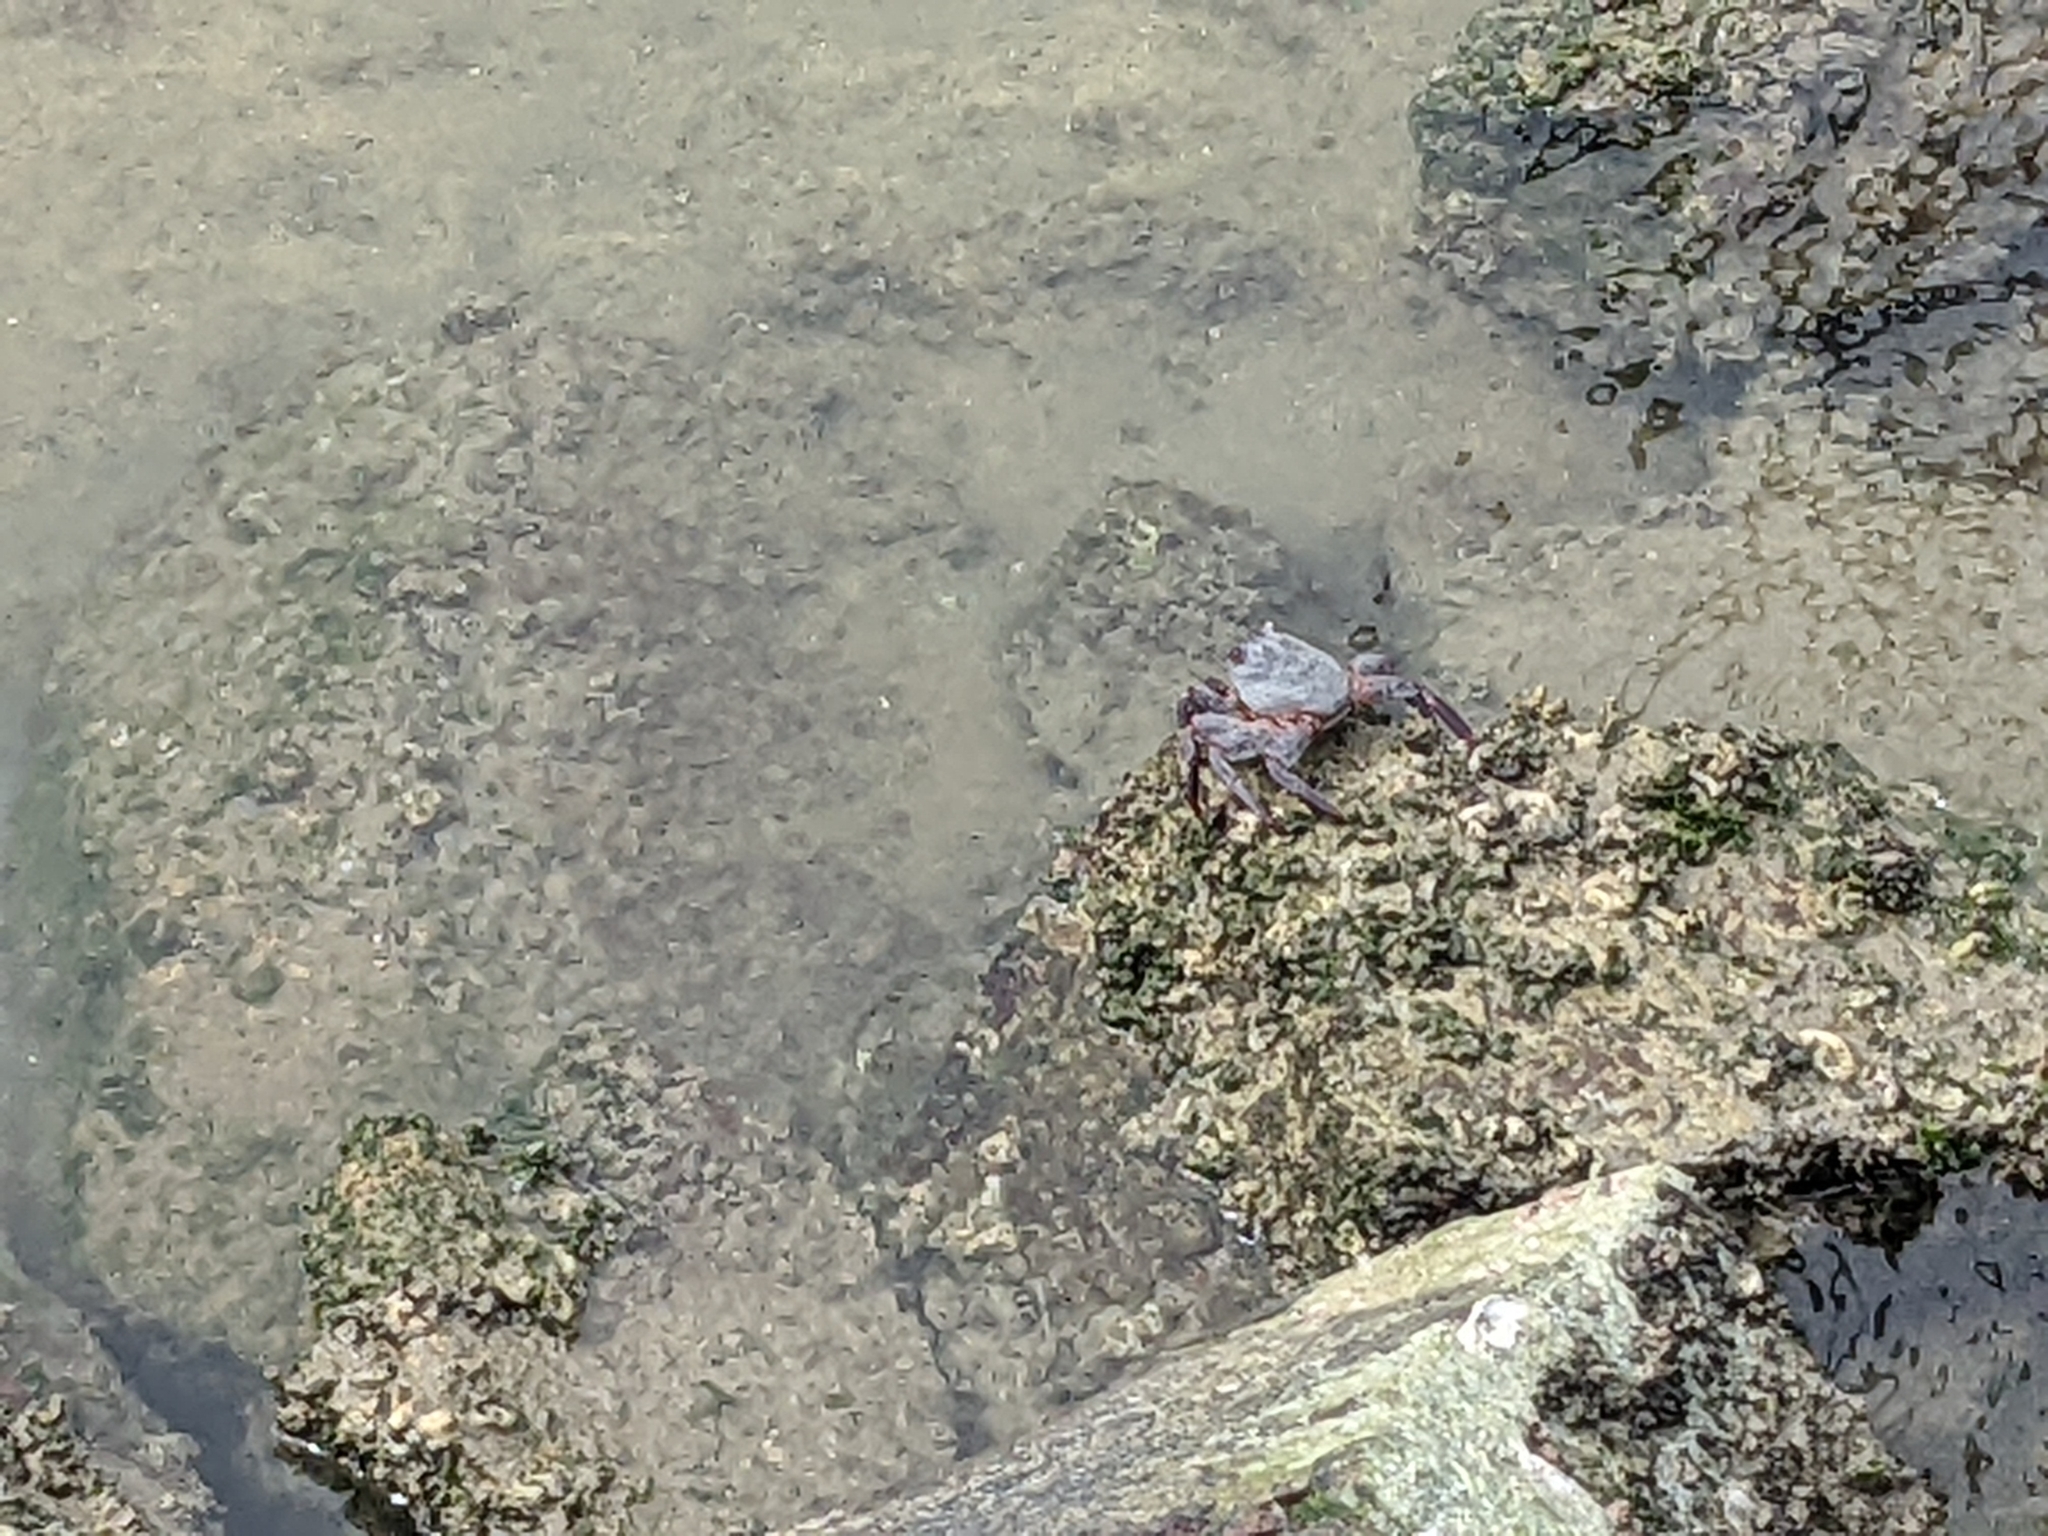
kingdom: Animalia
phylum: Arthropoda
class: Malacostraca
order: Decapoda
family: Grapsidae
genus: Grapsus
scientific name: Grapsus grapsus
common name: Sally lightfoot
